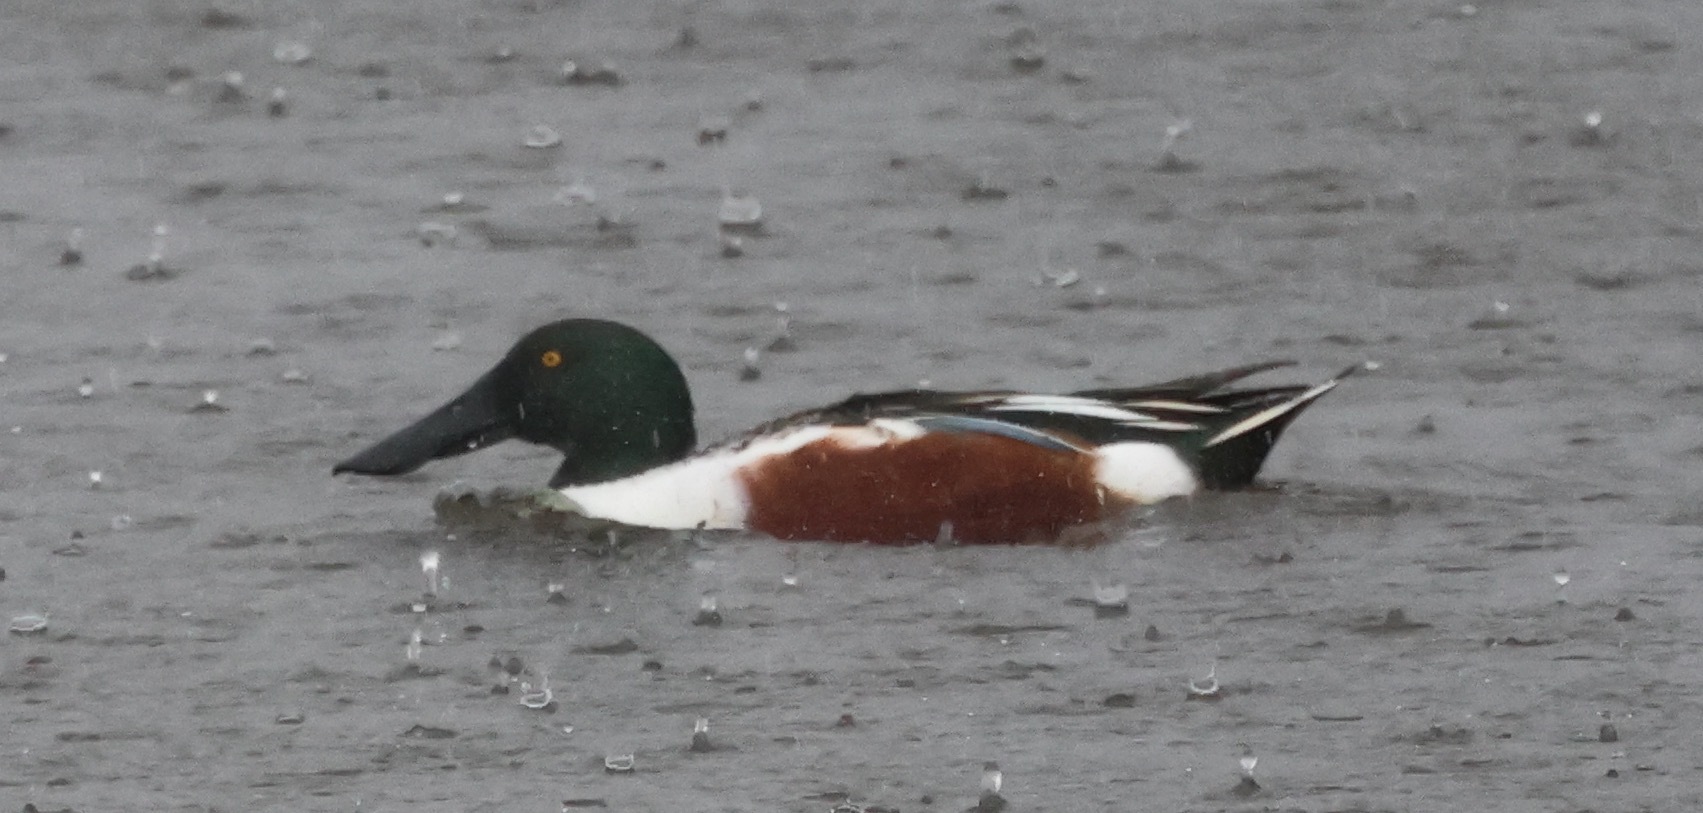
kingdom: Animalia
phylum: Chordata
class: Aves
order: Anseriformes
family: Anatidae
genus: Spatula
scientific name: Spatula clypeata
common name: Northern shoveler
